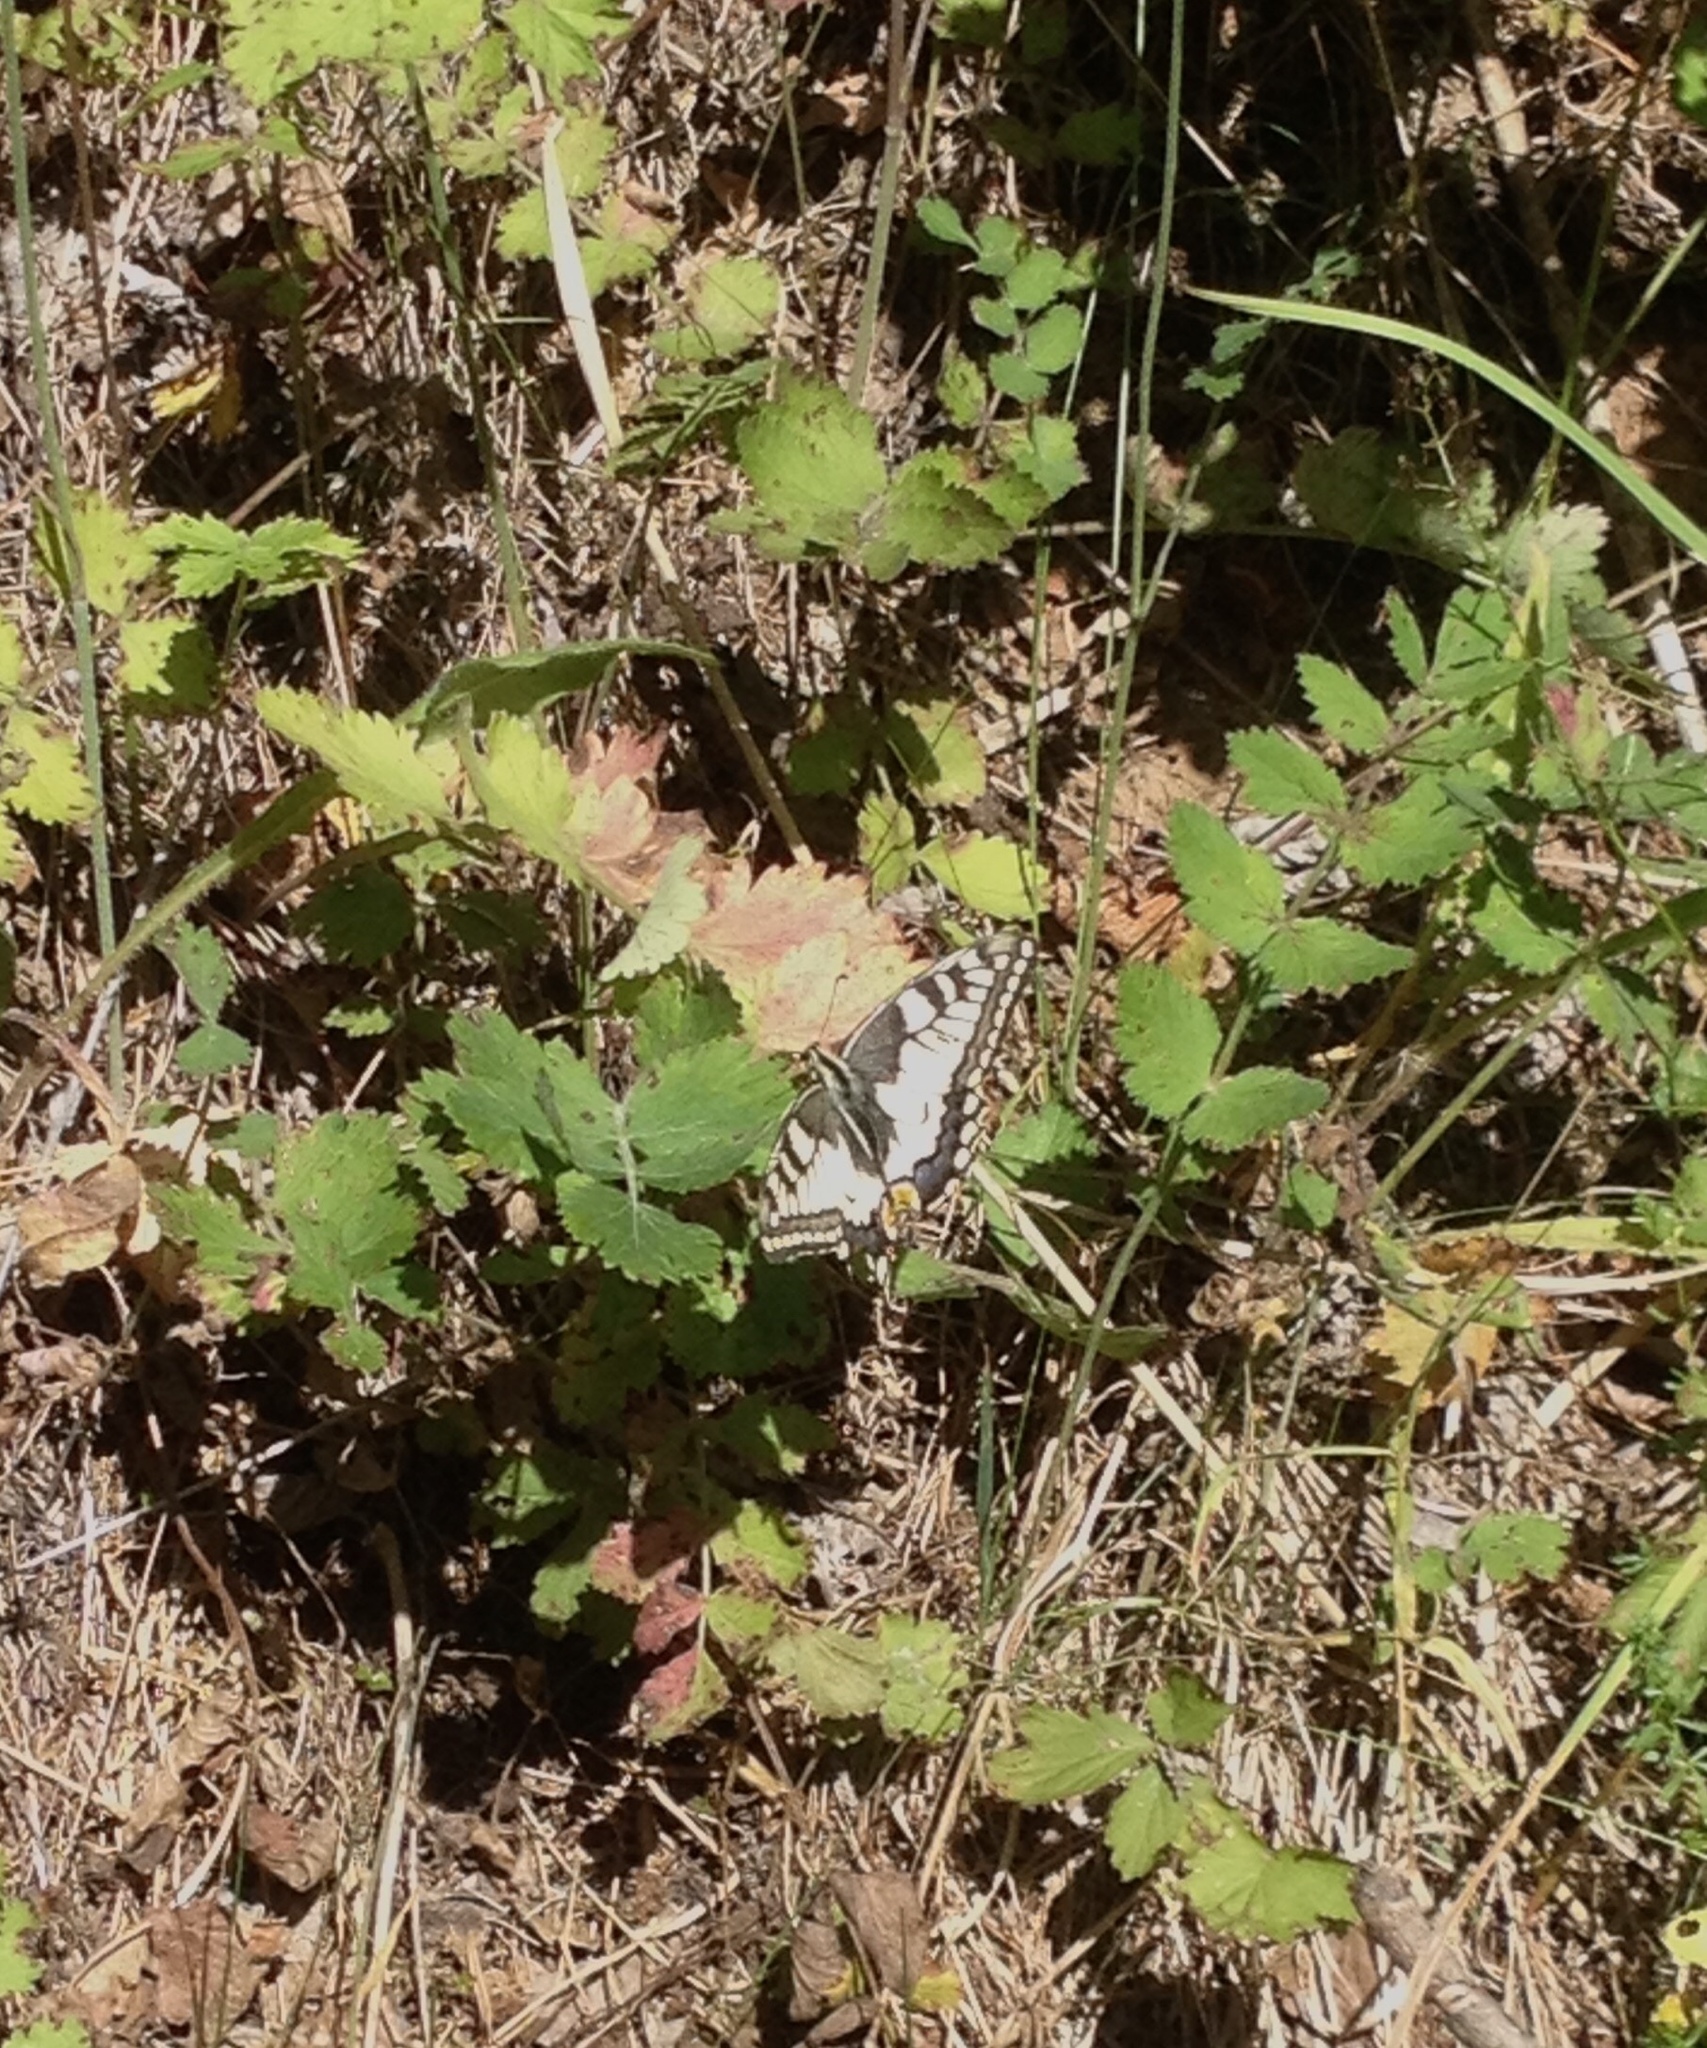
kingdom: Animalia
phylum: Arthropoda
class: Insecta
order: Lepidoptera
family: Papilionidae
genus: Papilio
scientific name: Papilio machaon
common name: Swallowtail
